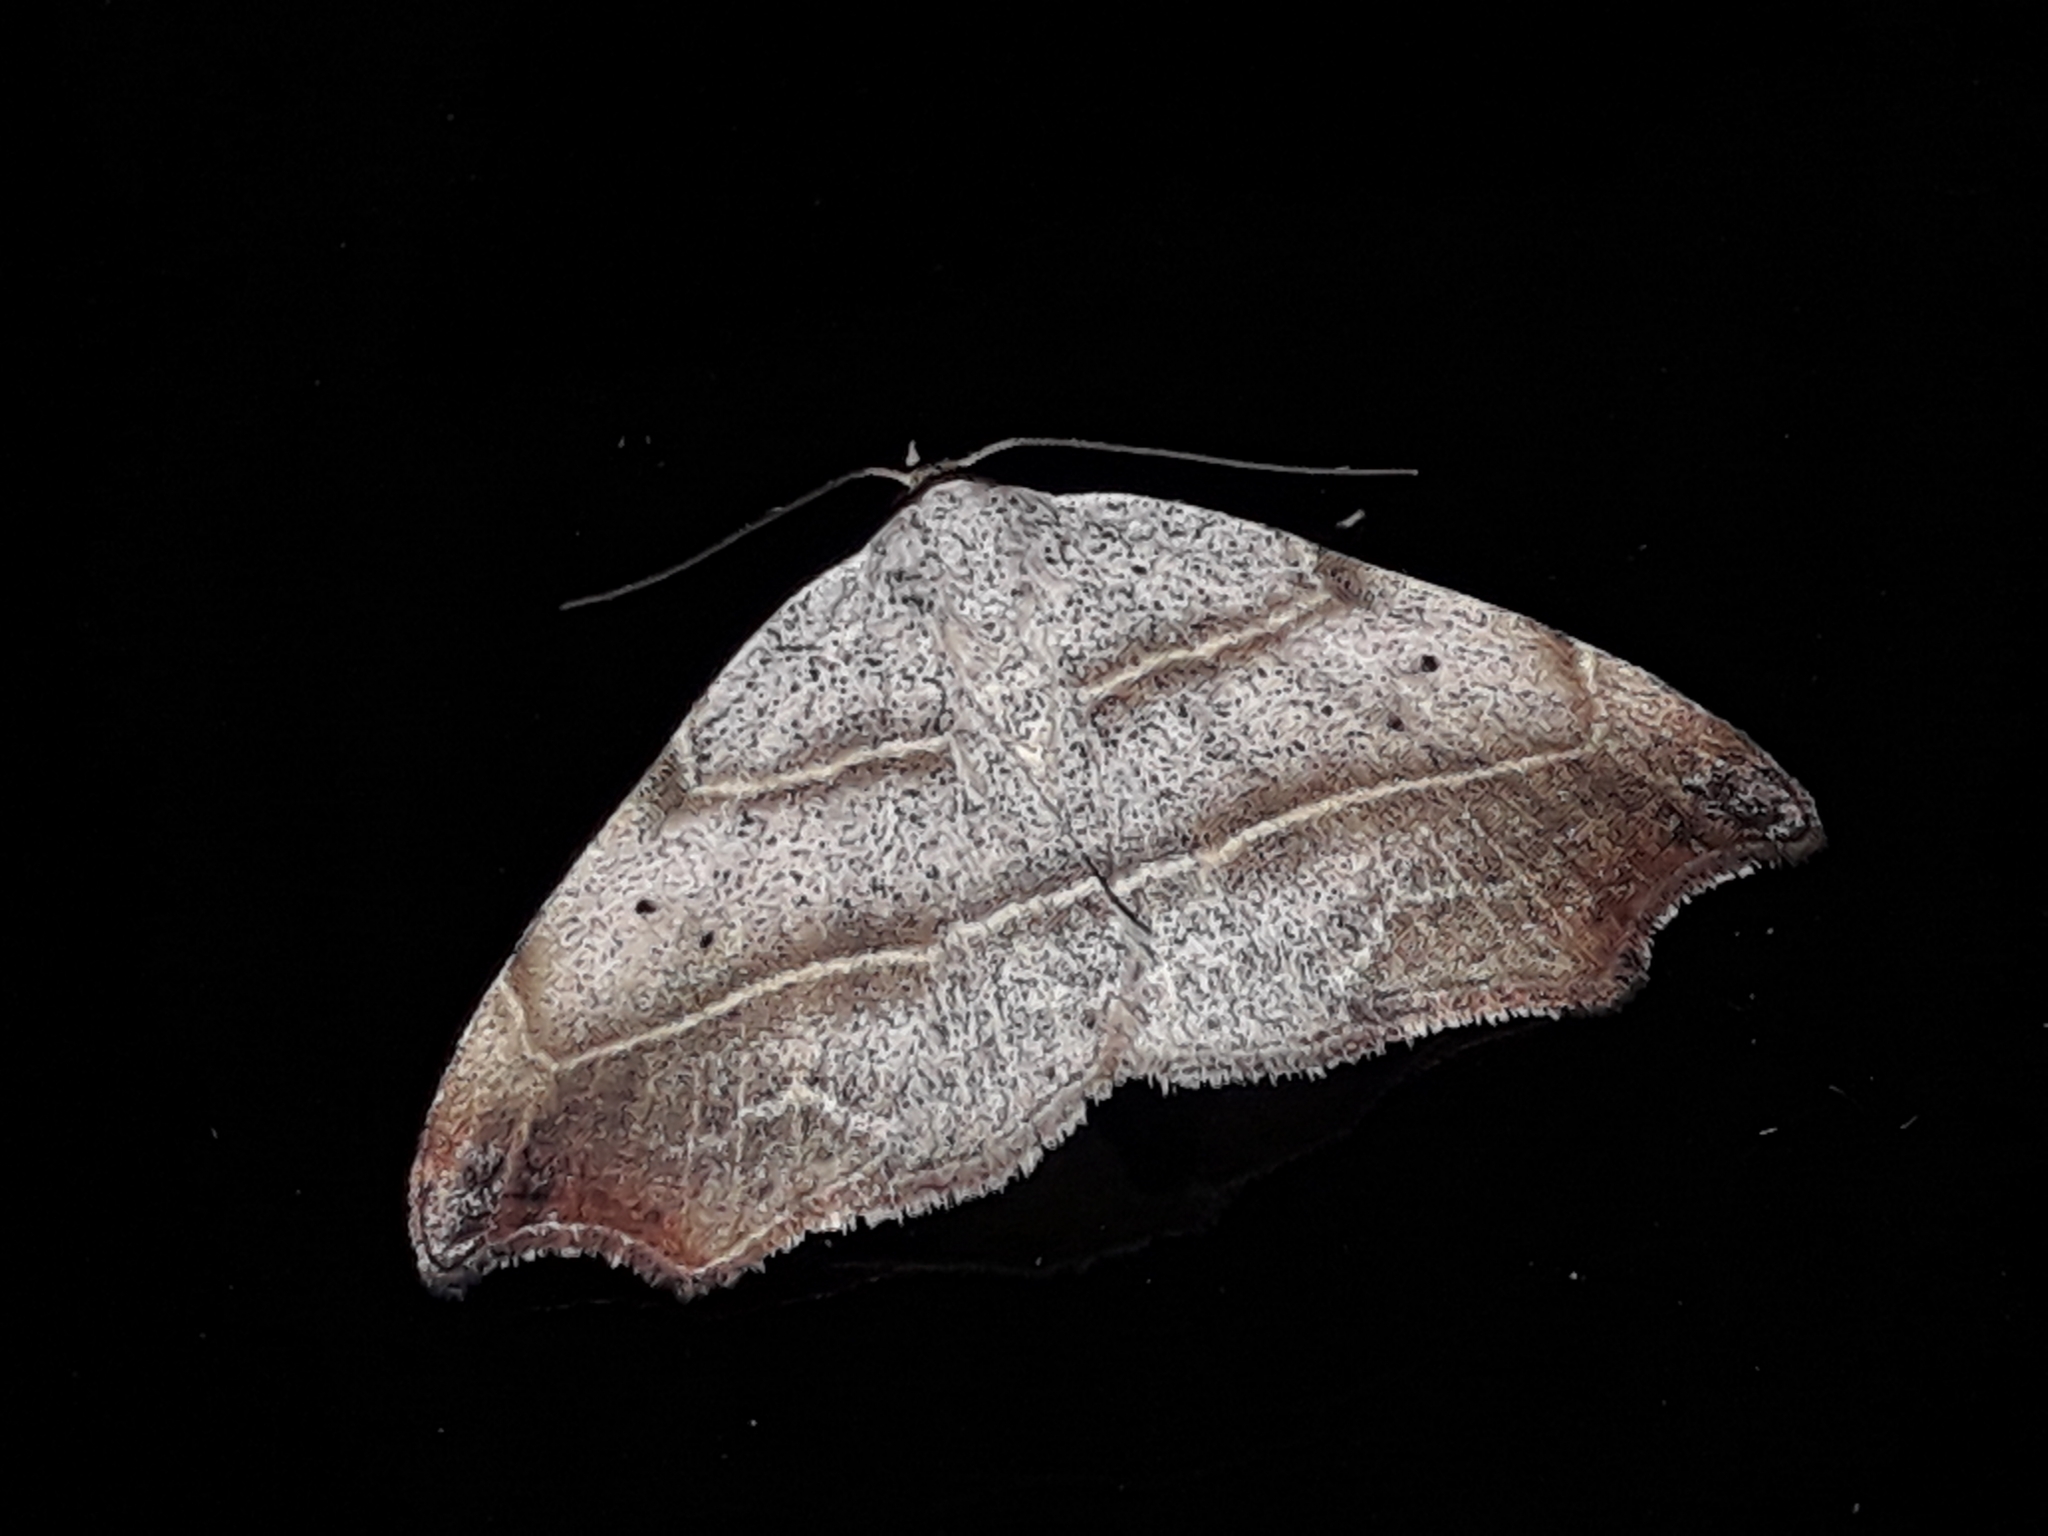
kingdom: Animalia
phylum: Arthropoda
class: Insecta
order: Lepidoptera
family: Erebidae
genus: Laspeyria
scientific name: Laspeyria flexula
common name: Beautiful hook-tip
